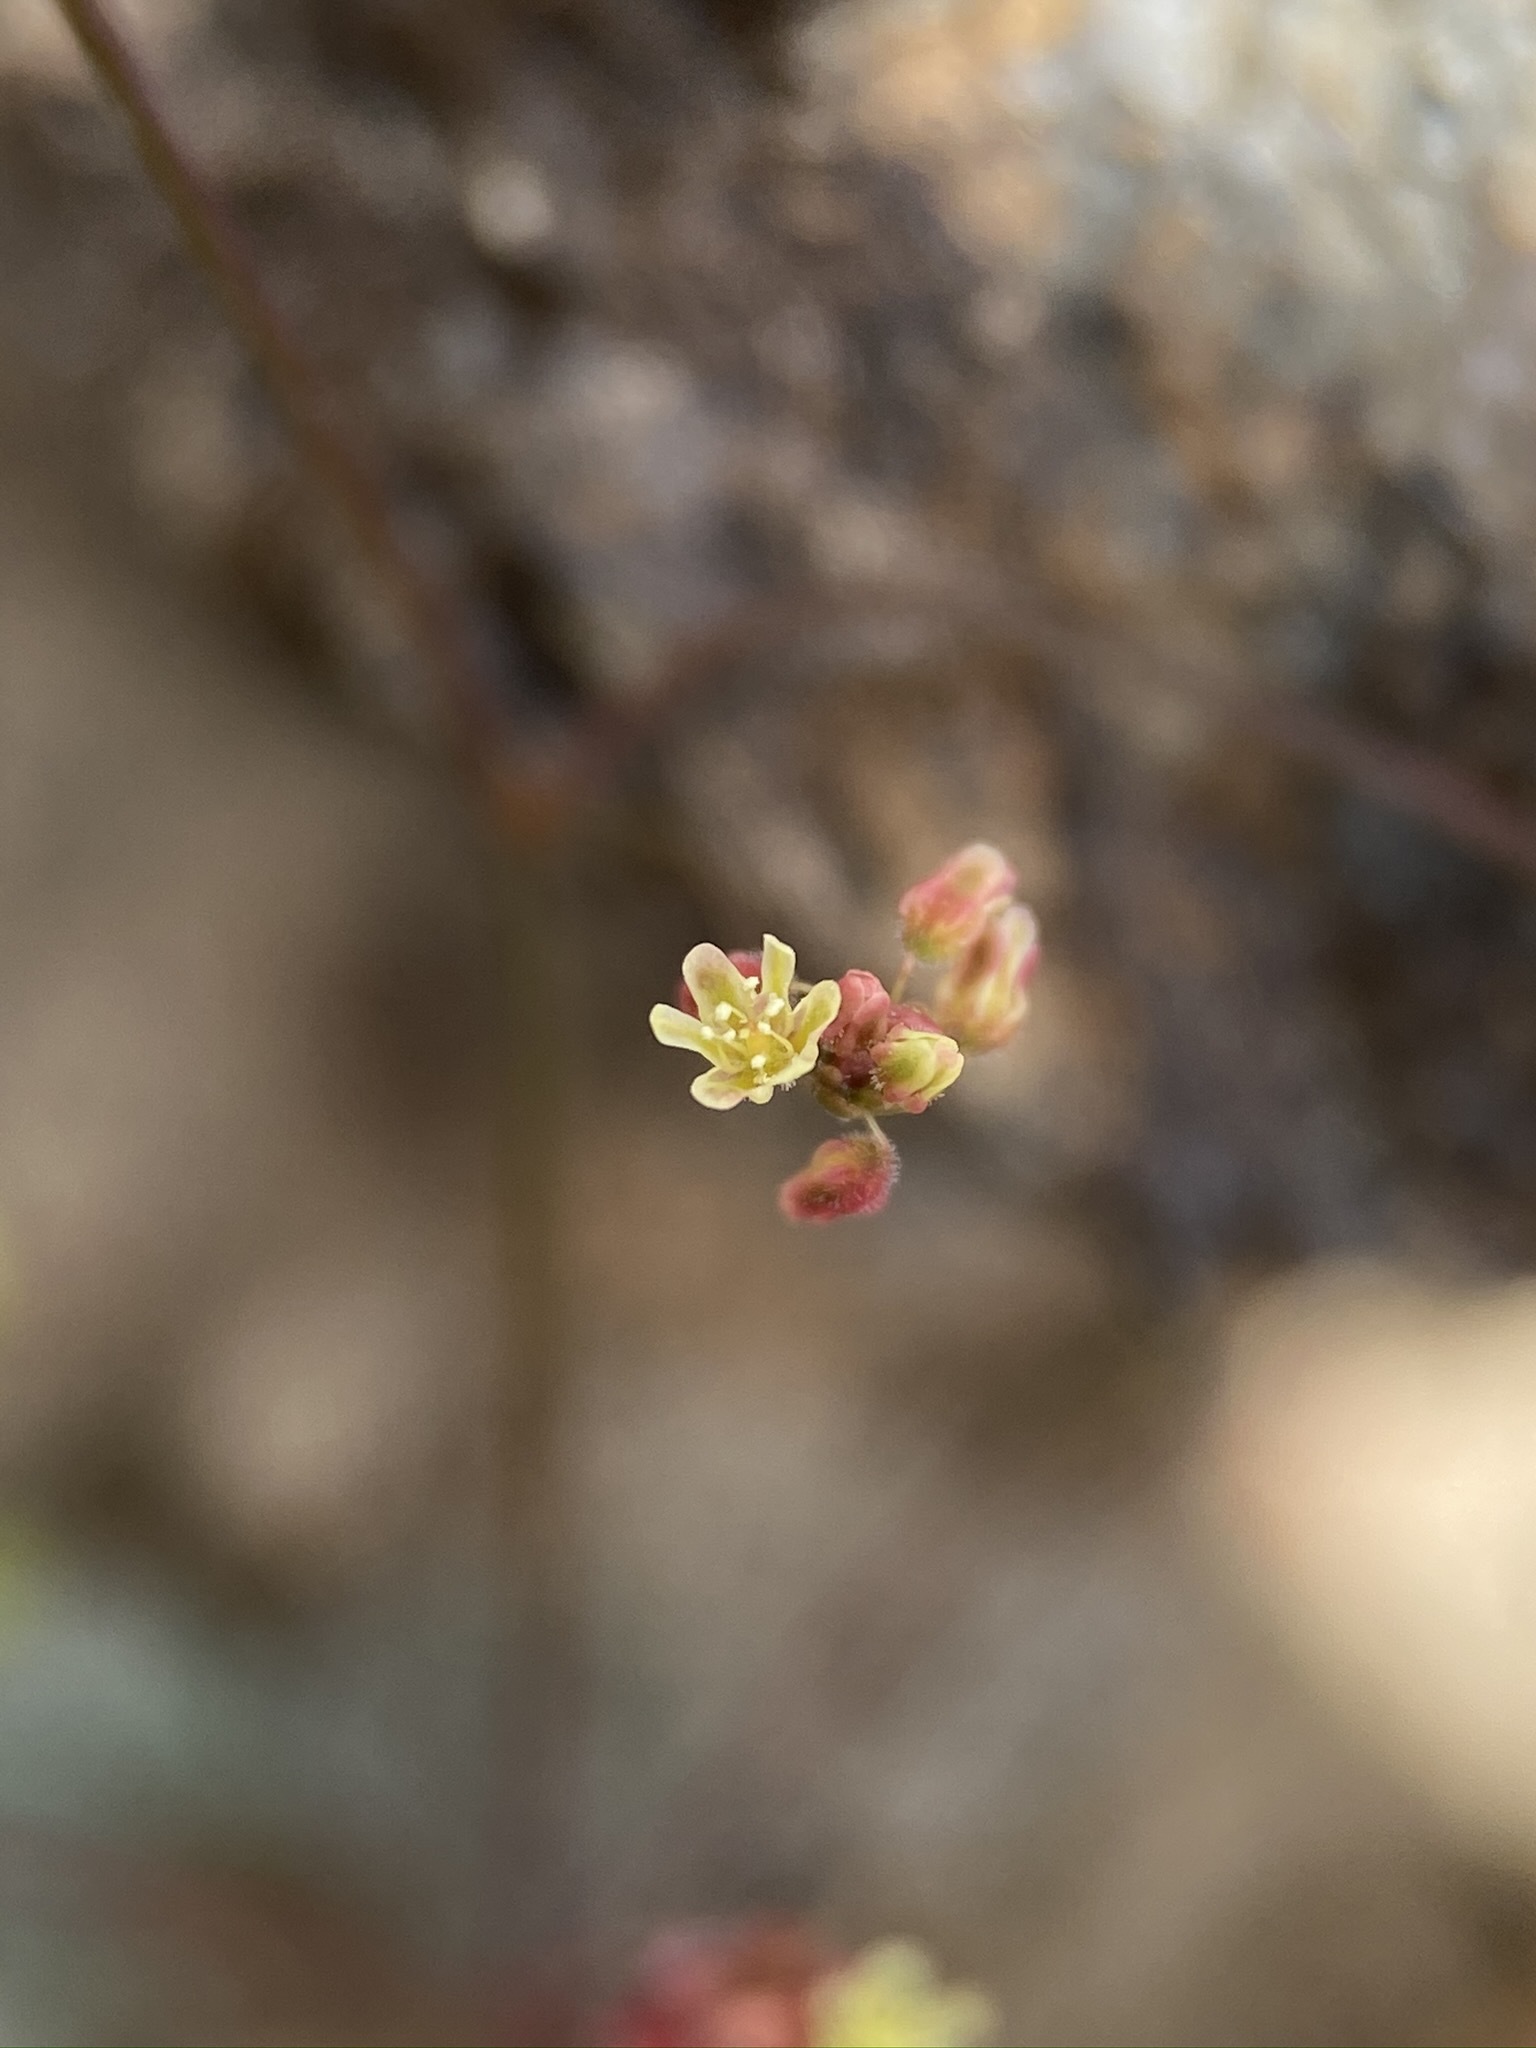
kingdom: Plantae
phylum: Tracheophyta
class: Magnoliopsida
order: Caryophyllales
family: Polygonaceae
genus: Eriogonum
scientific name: Eriogonum thomasii
